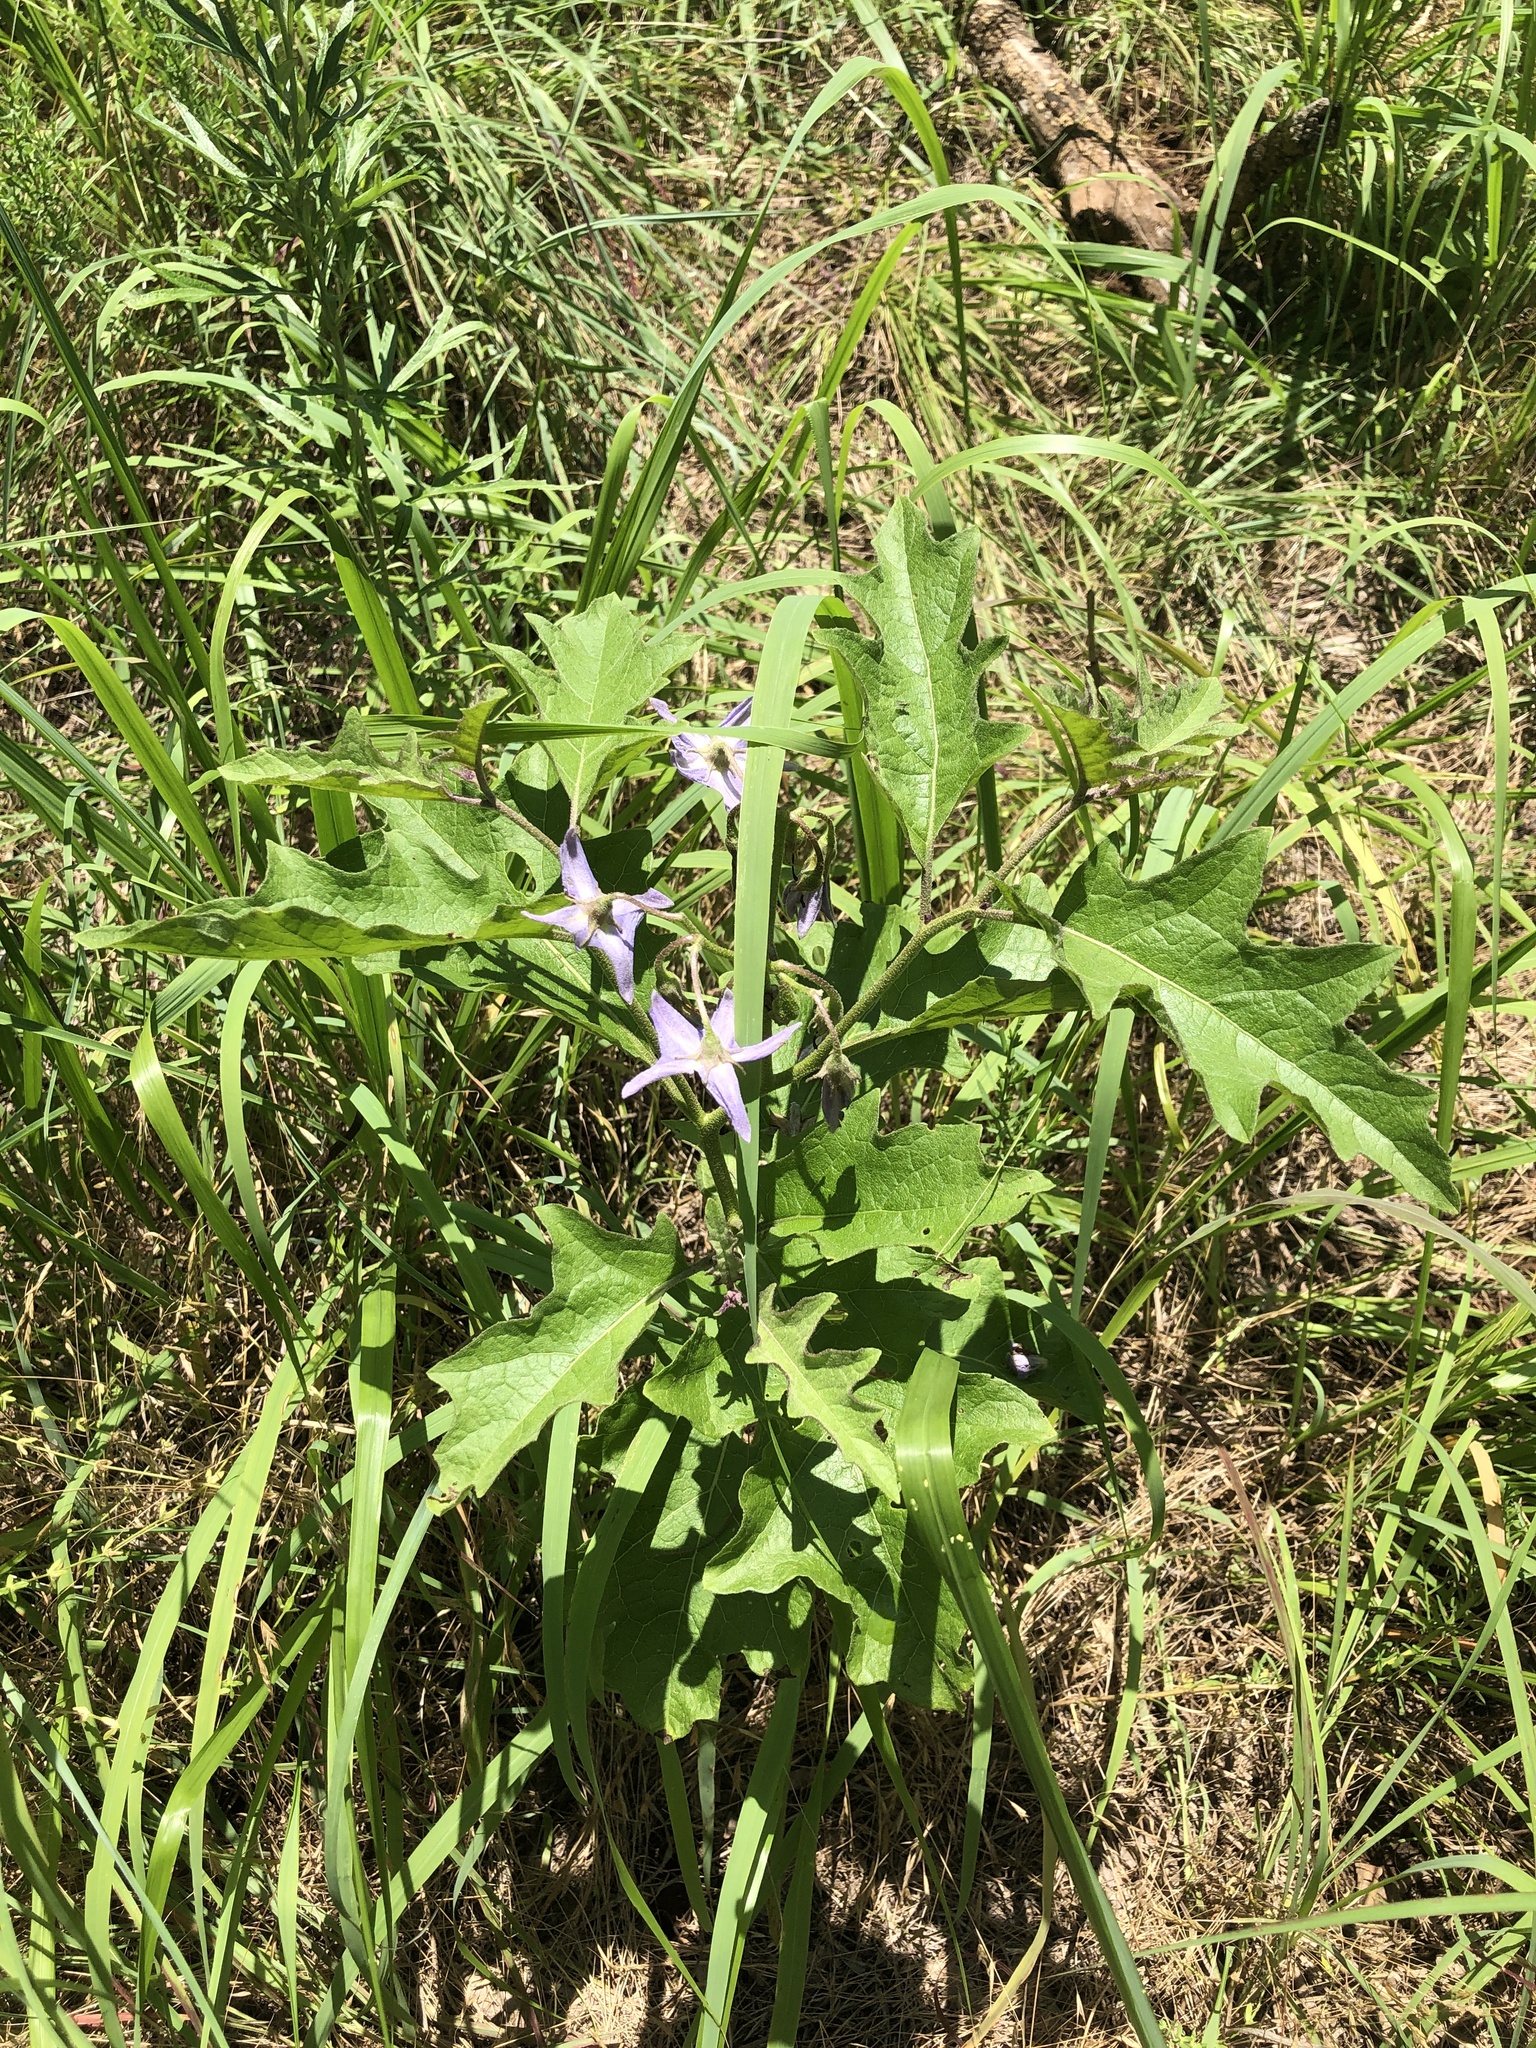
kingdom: Plantae
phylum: Tracheophyta
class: Magnoliopsida
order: Solanales
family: Solanaceae
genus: Solanum
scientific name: Solanum dimidiatum
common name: Carolina horse-nettle
